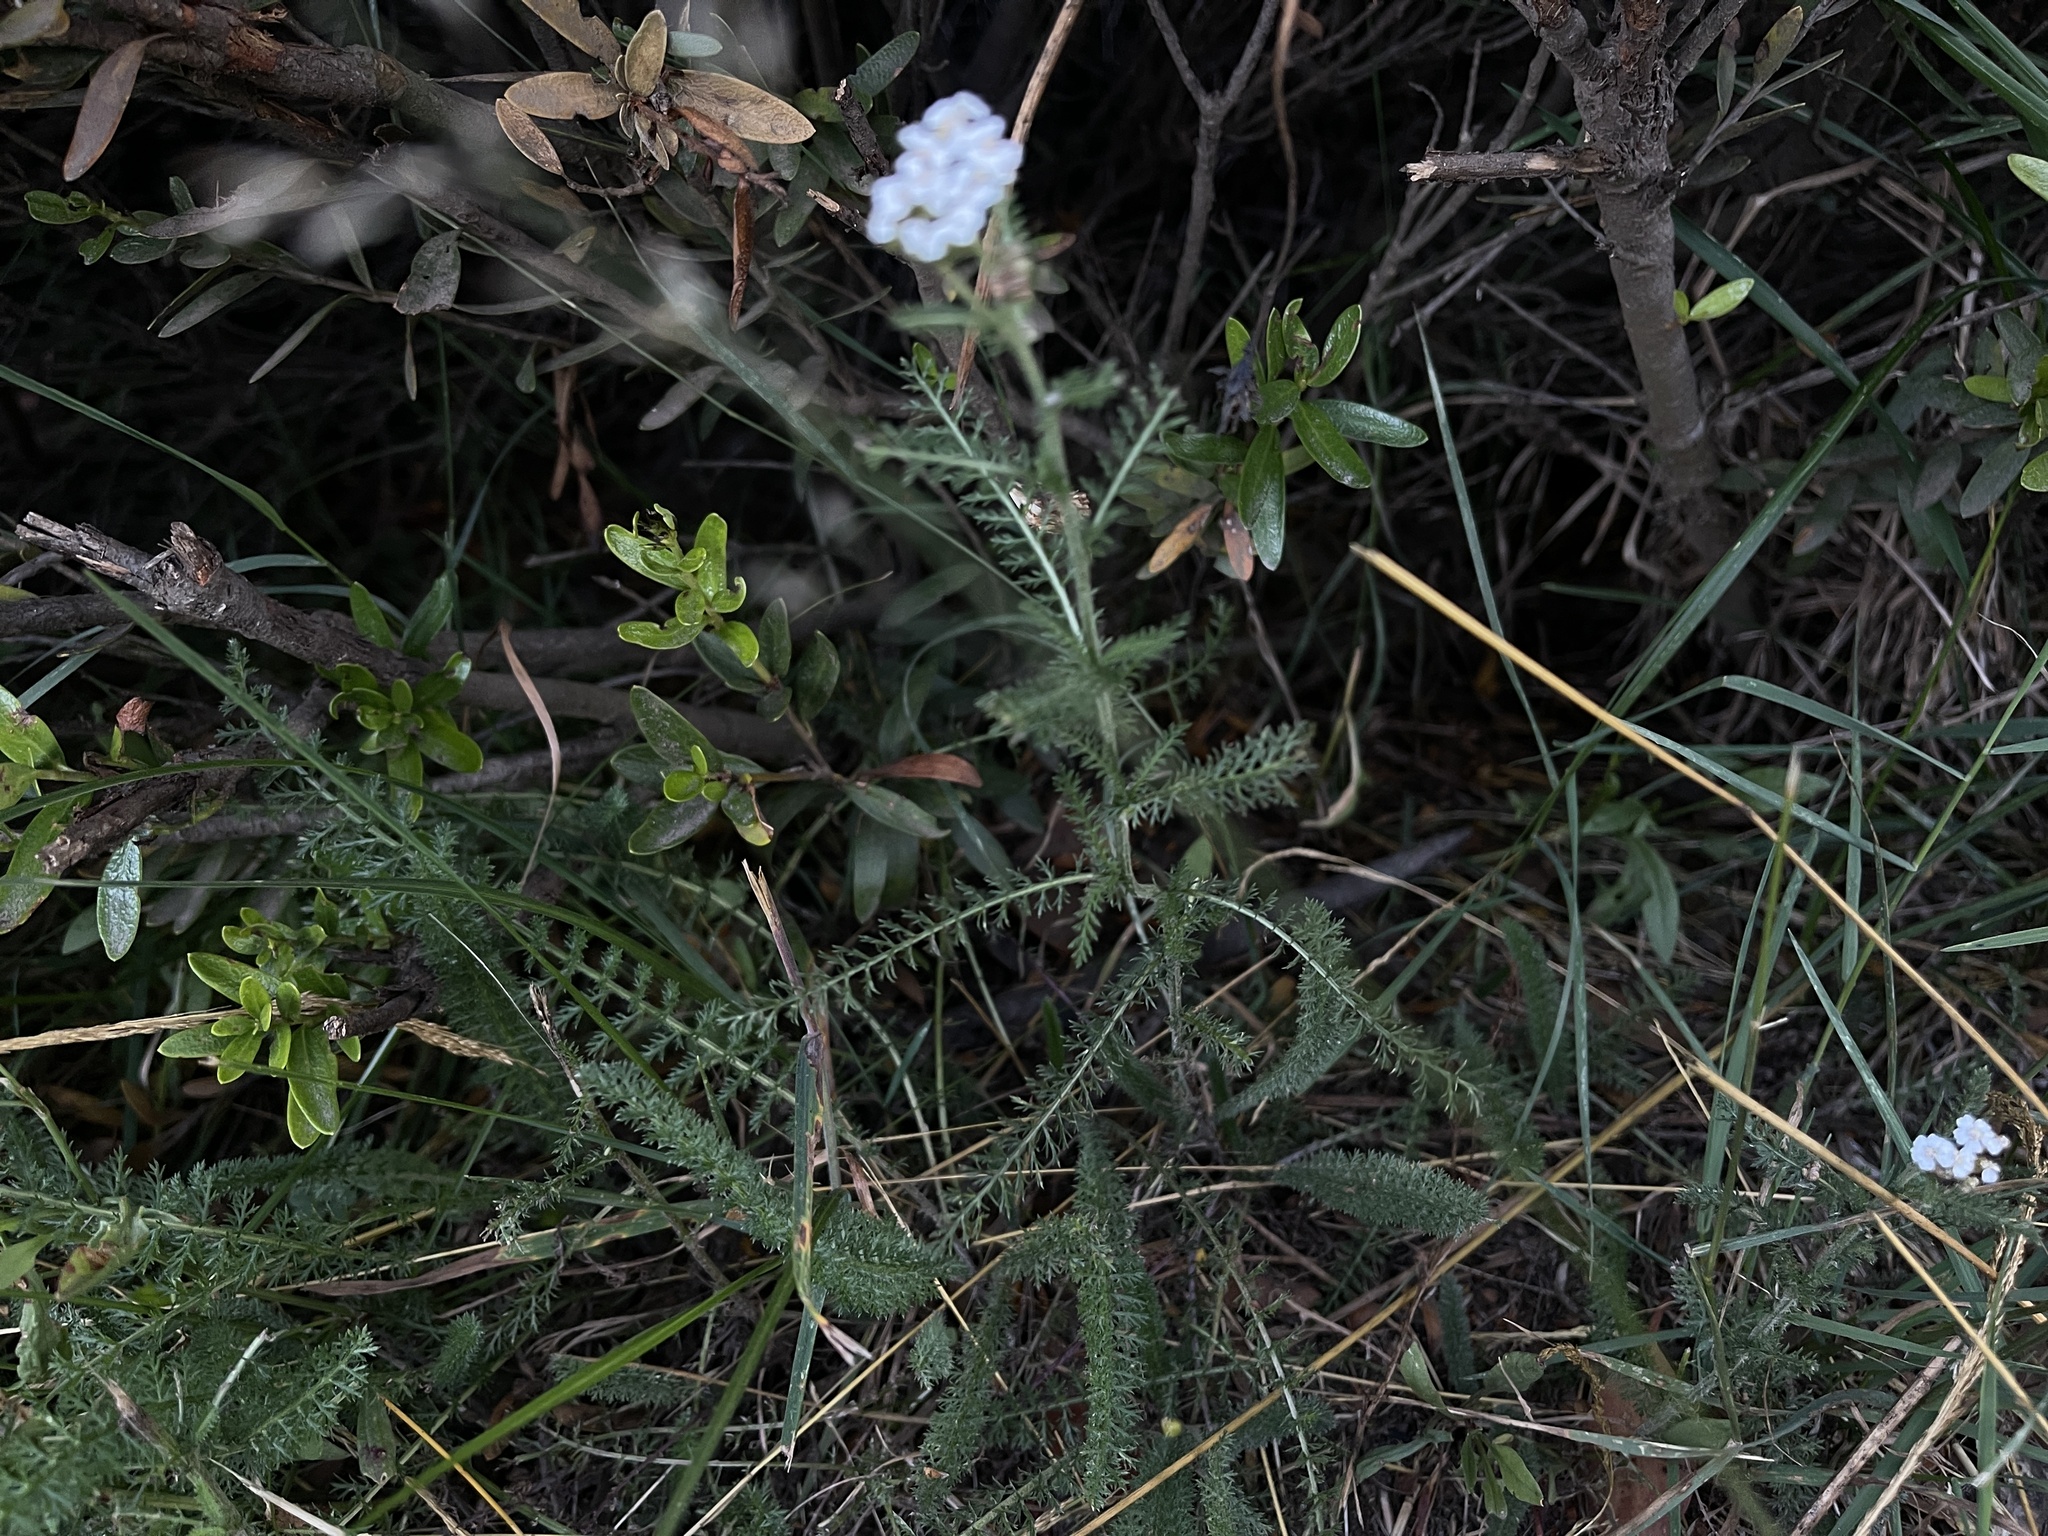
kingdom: Plantae
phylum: Tracheophyta
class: Magnoliopsida
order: Asterales
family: Asteraceae
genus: Achillea
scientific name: Achillea millefolium
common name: Yarrow
